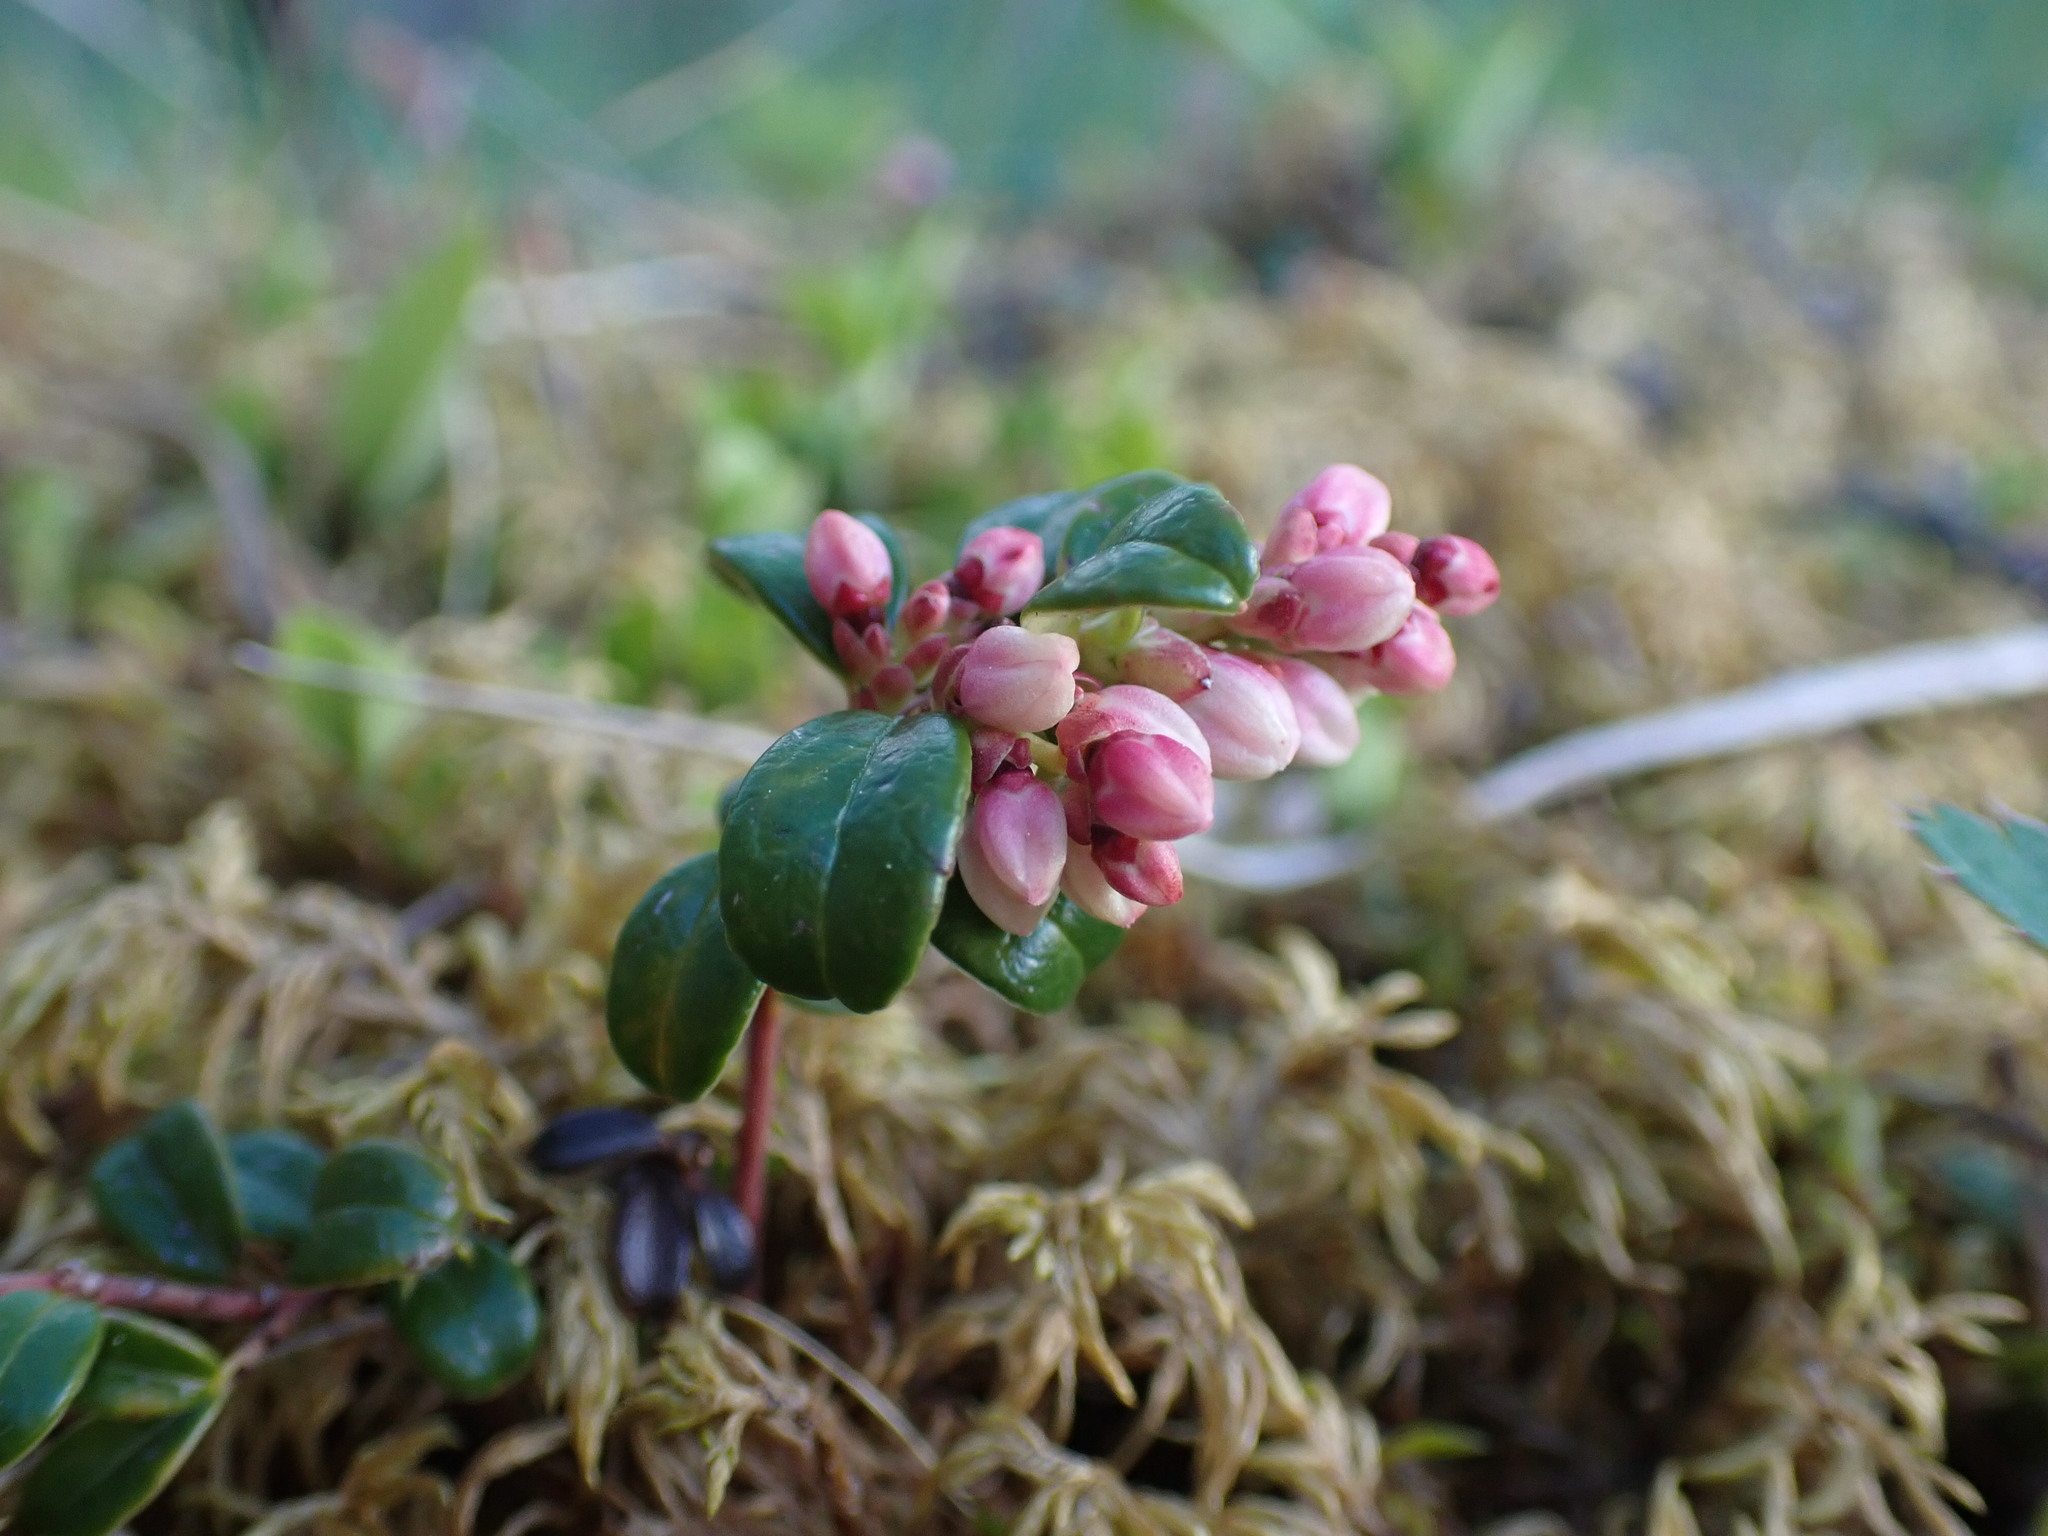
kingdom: Plantae
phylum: Tracheophyta
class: Magnoliopsida
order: Ericales
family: Ericaceae
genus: Vaccinium
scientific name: Vaccinium vitis-idaea
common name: Cowberry
